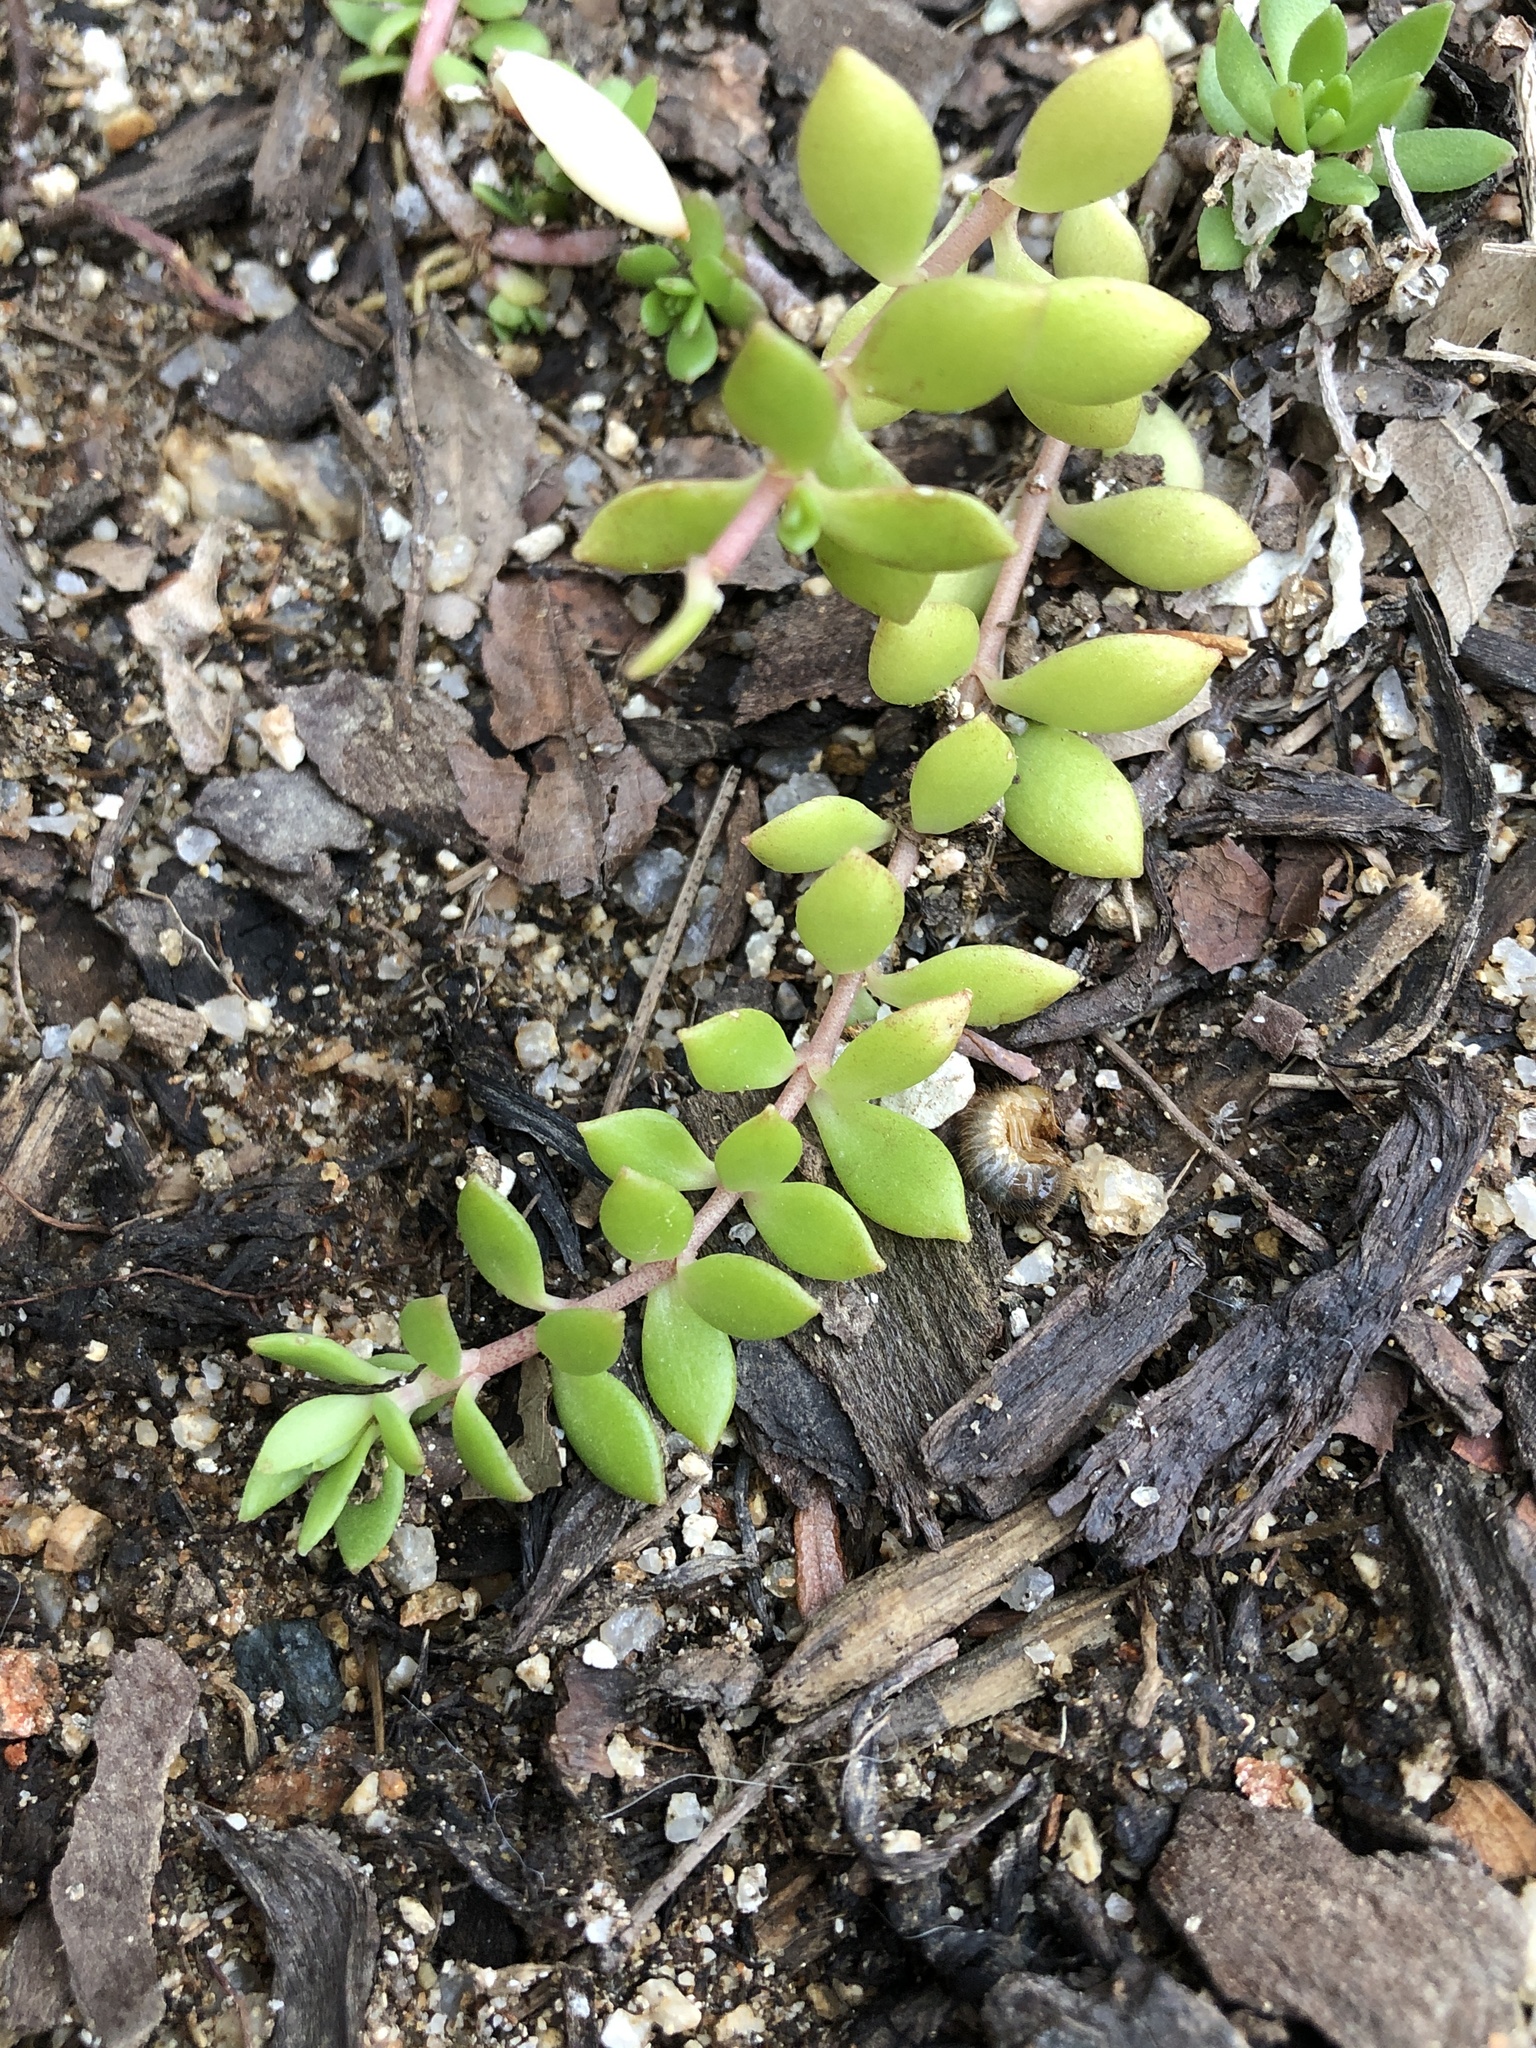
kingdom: Plantae
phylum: Tracheophyta
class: Magnoliopsida
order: Saxifragales
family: Crassulaceae
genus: Sedum
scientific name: Sedum sarmentosum
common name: Stringy stonecrop
